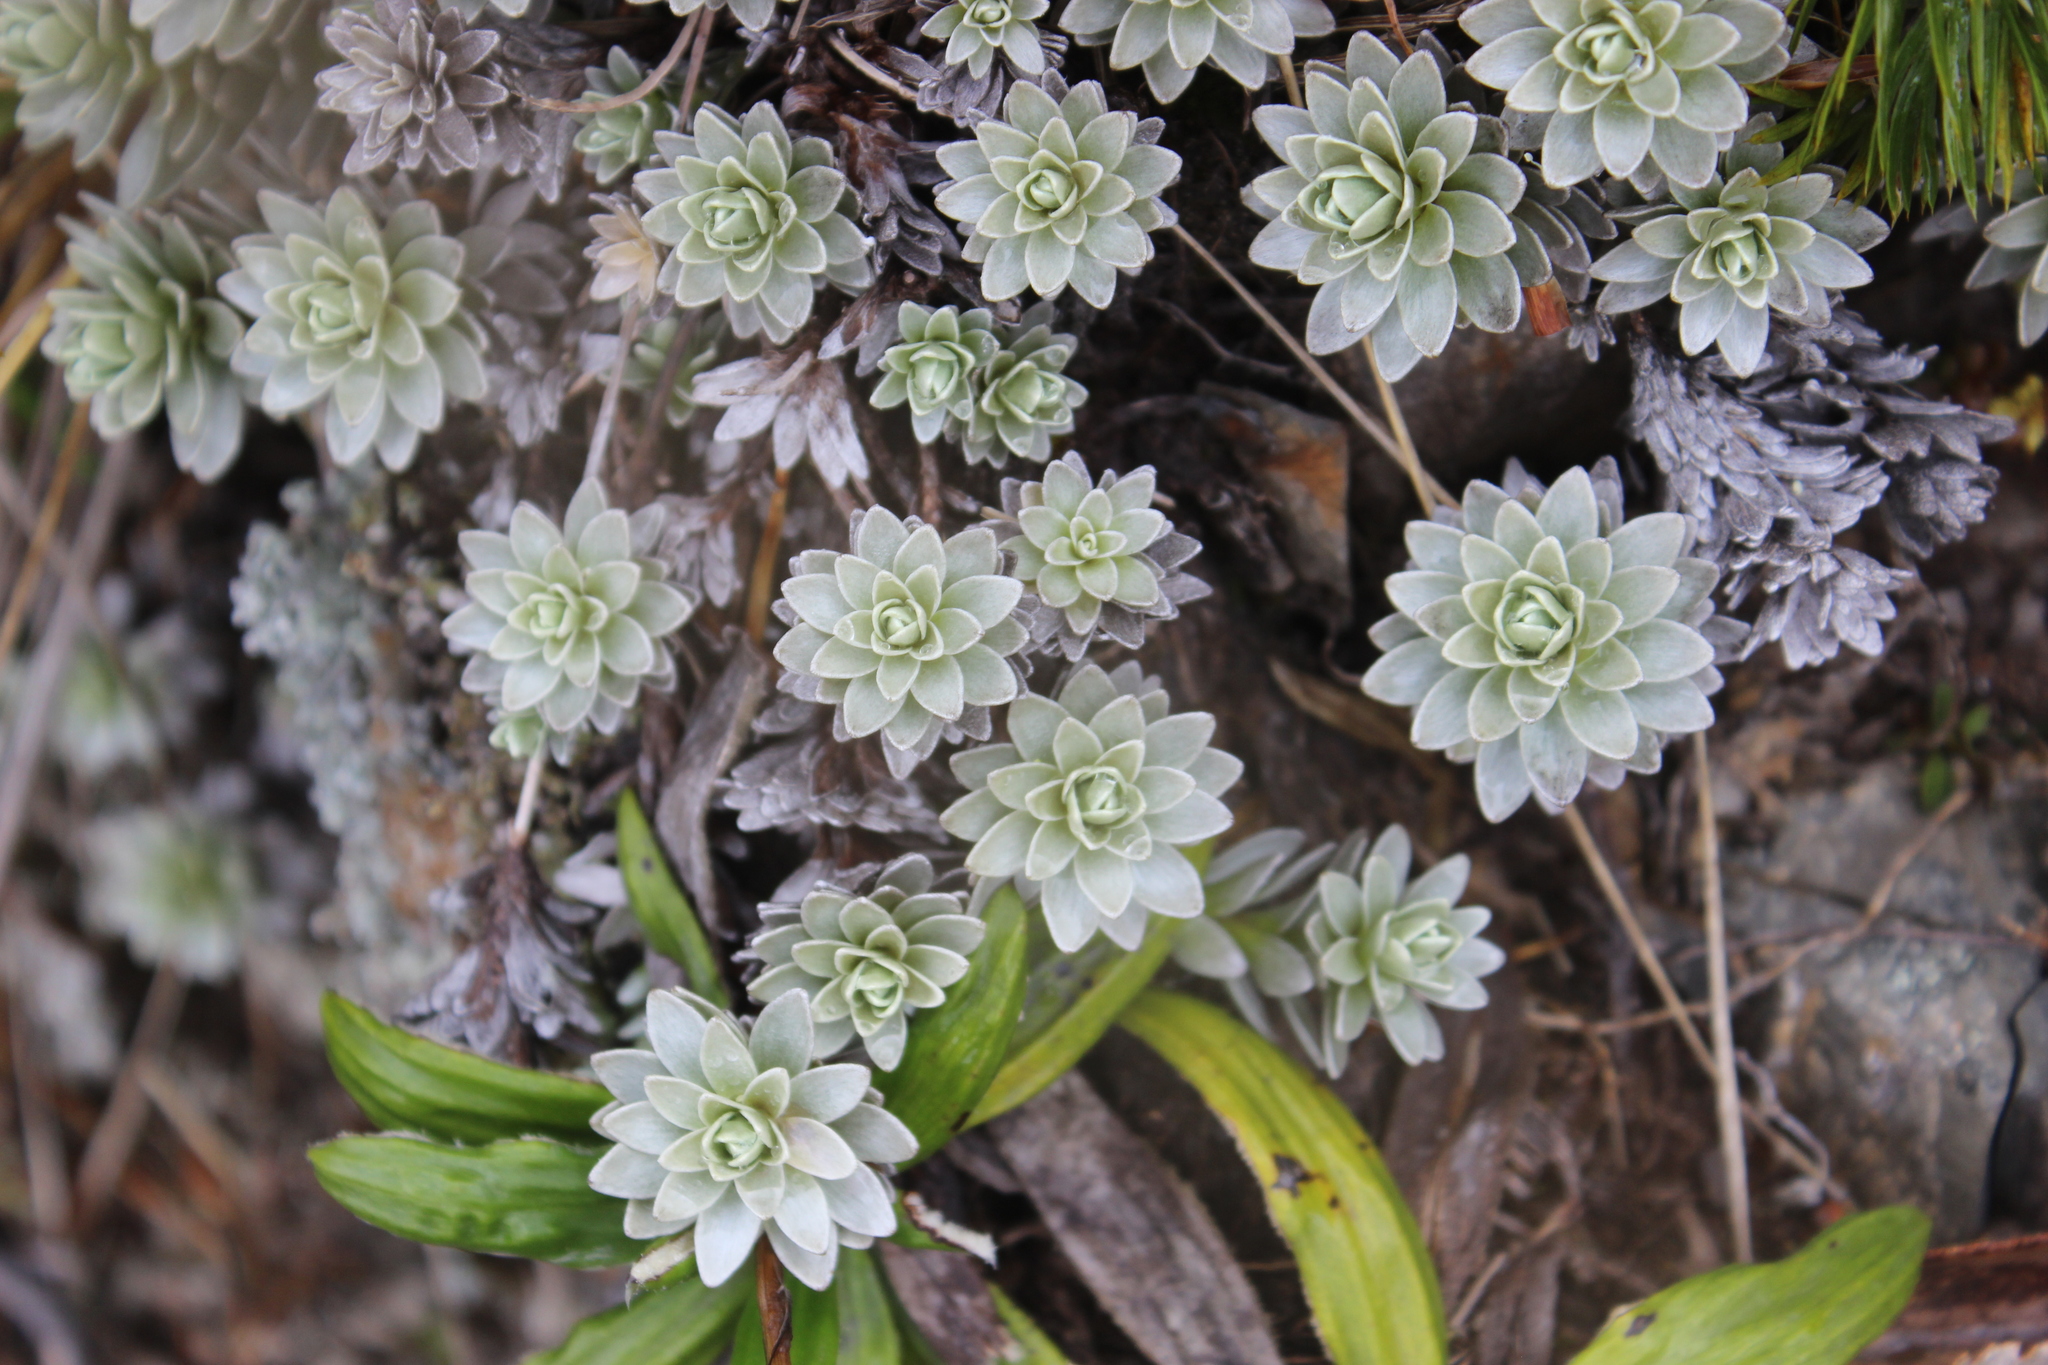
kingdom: Plantae
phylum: Tracheophyta
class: Magnoliopsida
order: Asterales
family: Asteraceae
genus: Leucogenes
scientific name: Leucogenes leontopodium
